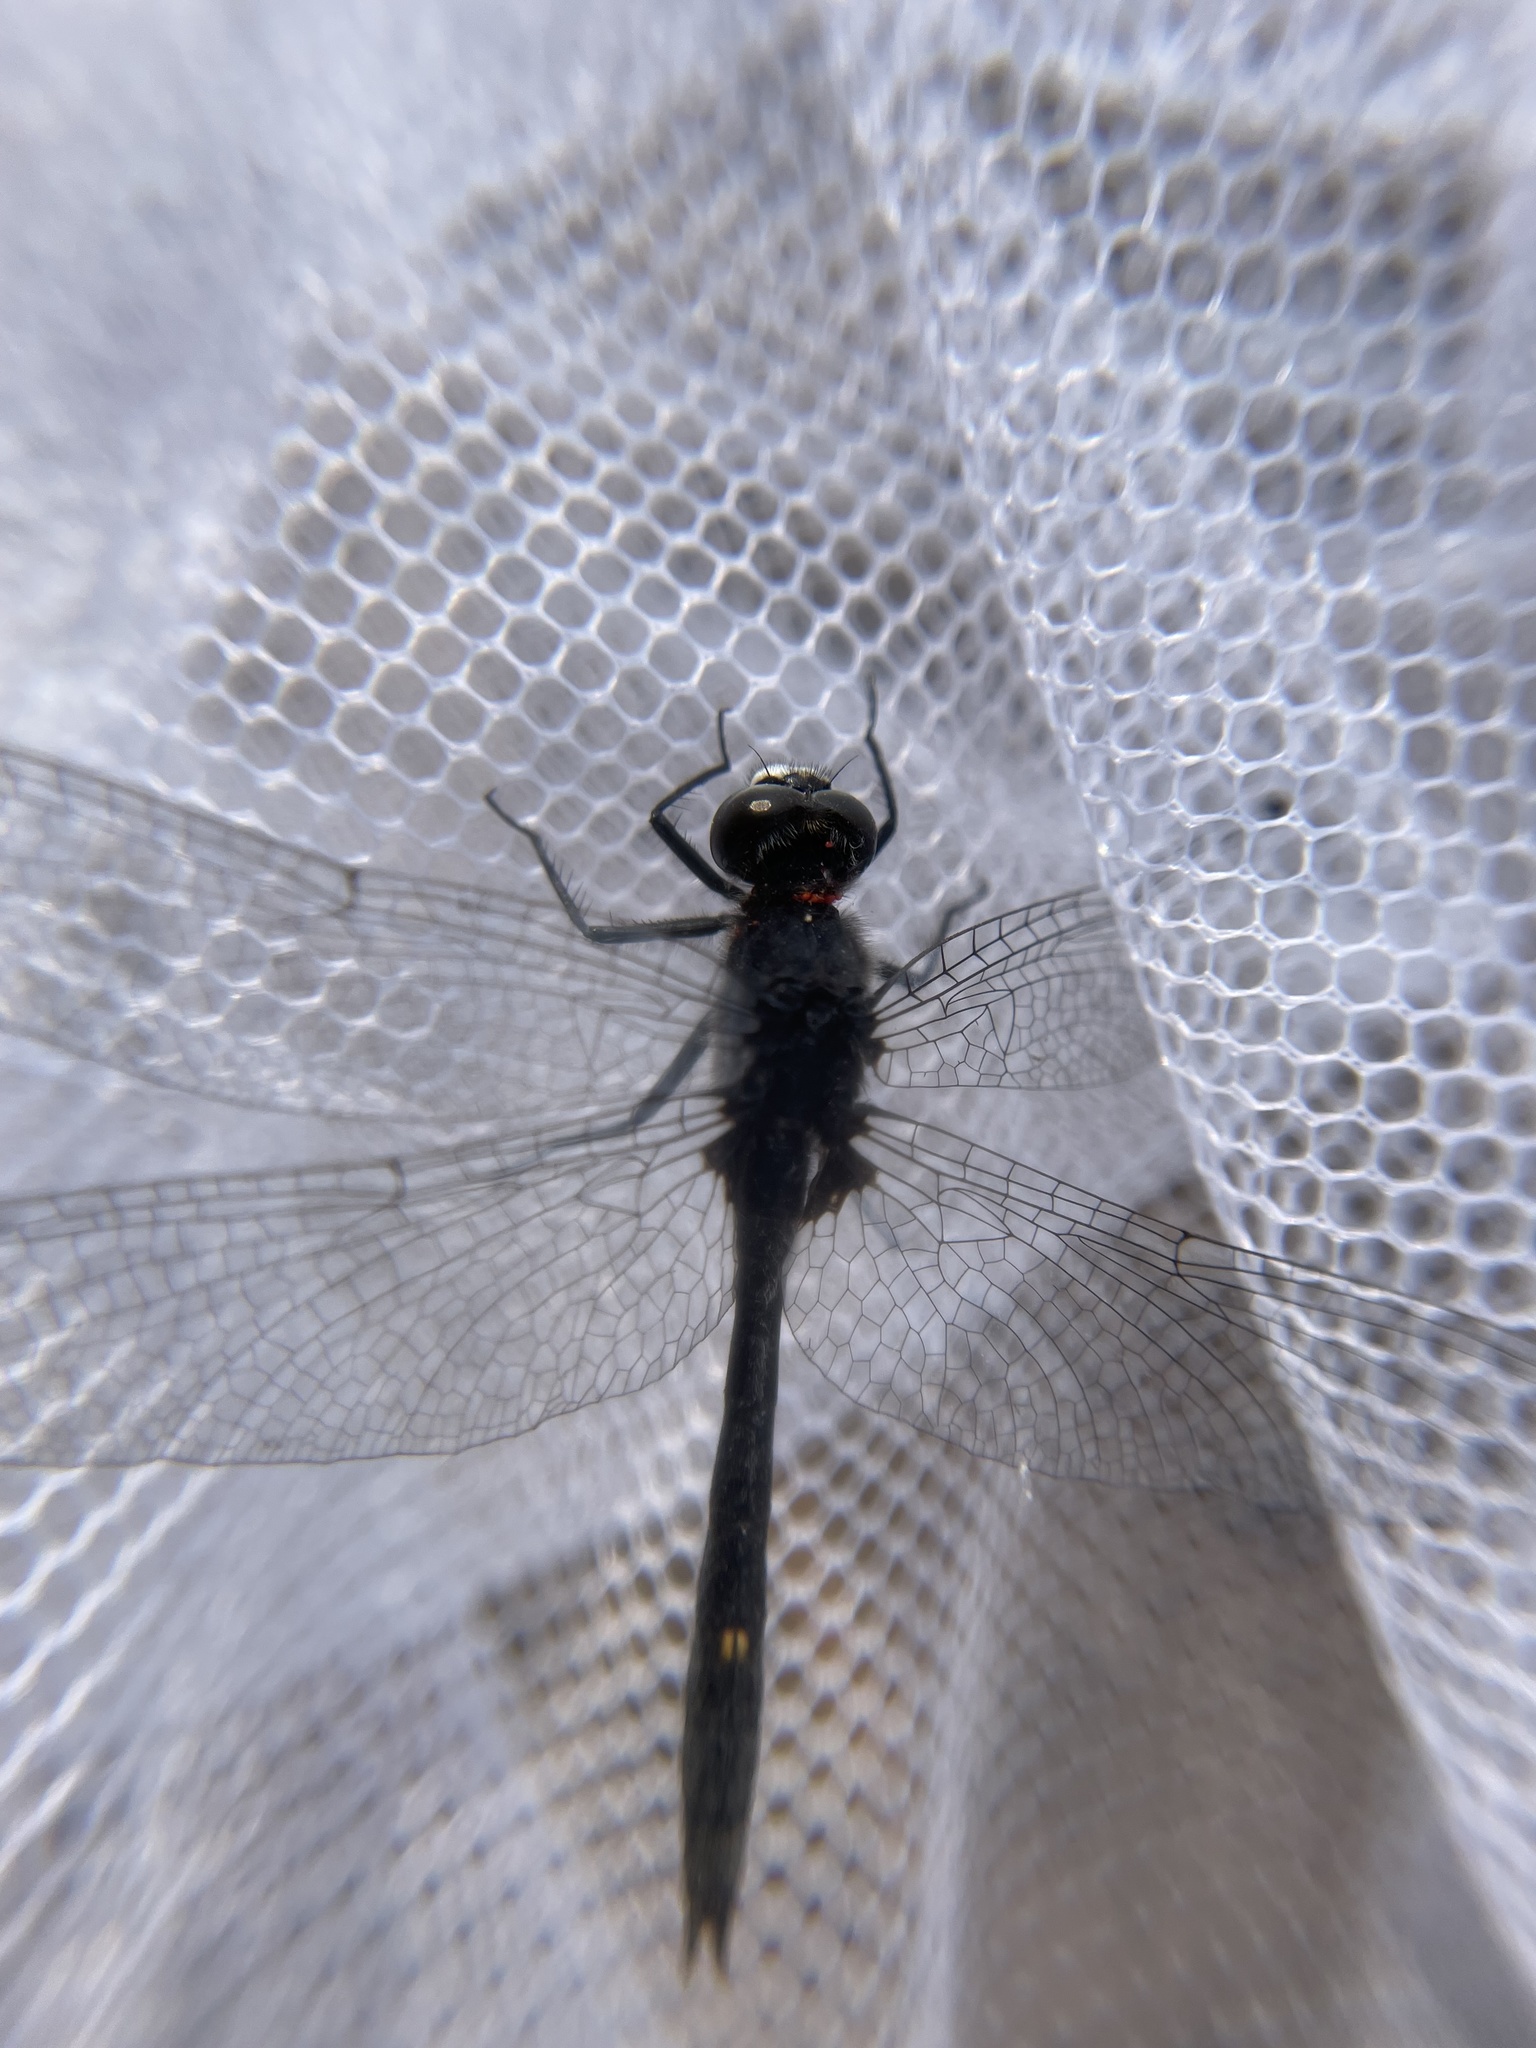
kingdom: Animalia
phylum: Arthropoda
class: Insecta
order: Odonata
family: Libellulidae
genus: Leucorrhinia
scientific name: Leucorrhinia intacta
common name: Dot-tailed whiteface
